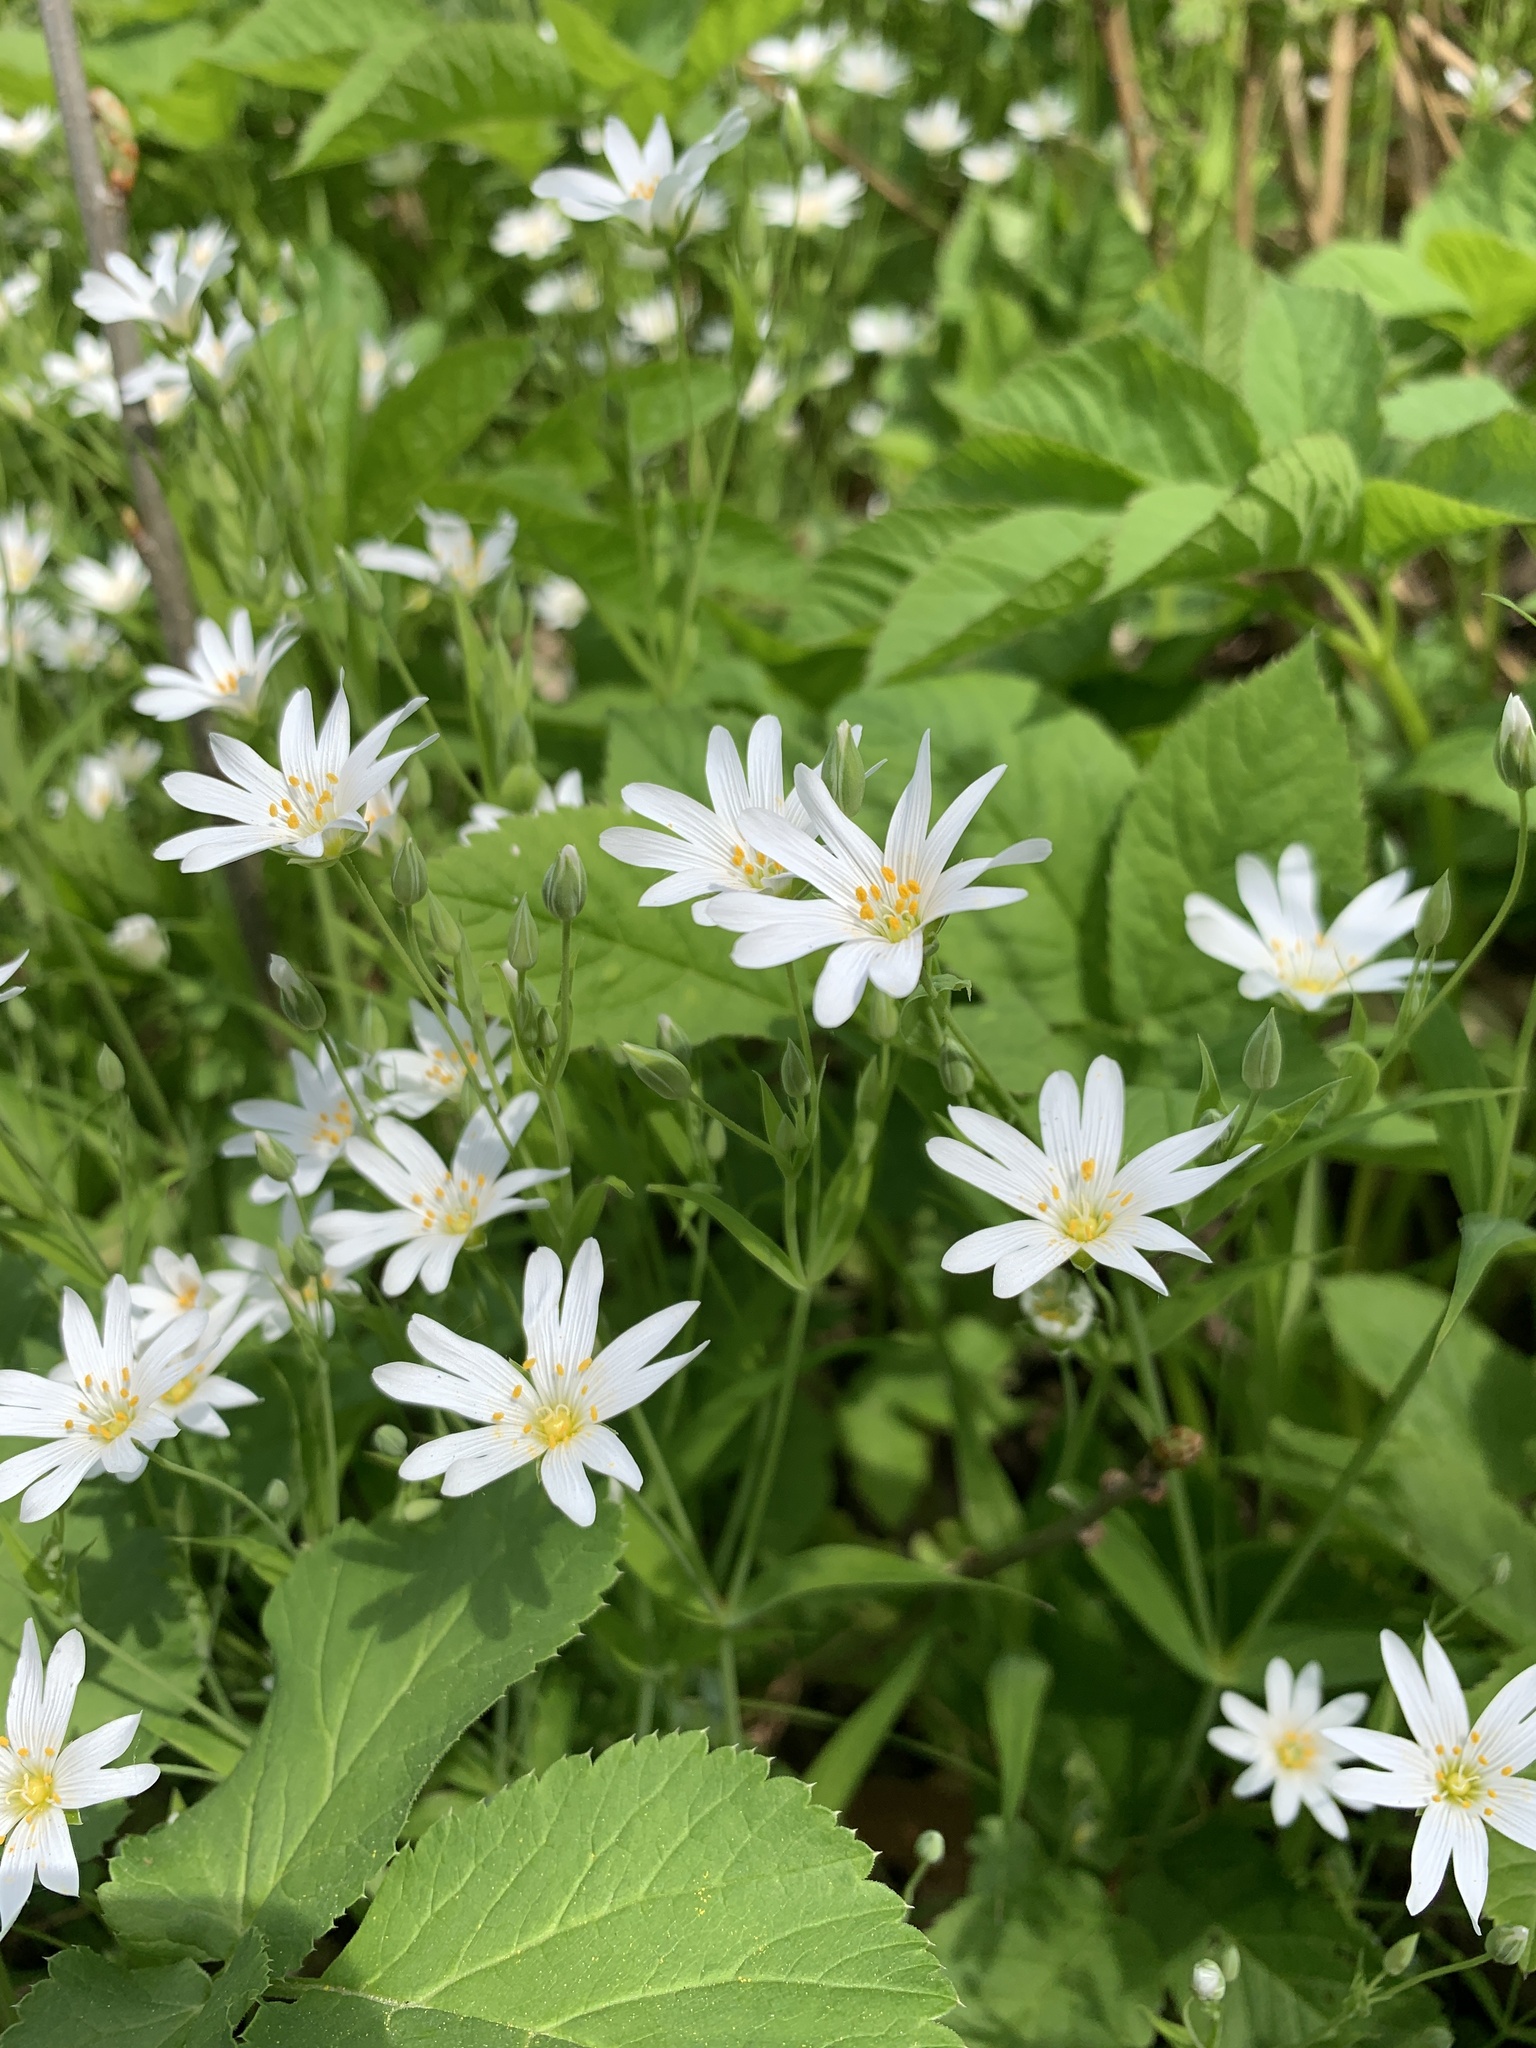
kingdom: Plantae
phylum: Tracheophyta
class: Magnoliopsida
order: Caryophyllales
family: Caryophyllaceae
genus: Rabelera
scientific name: Rabelera holostea
